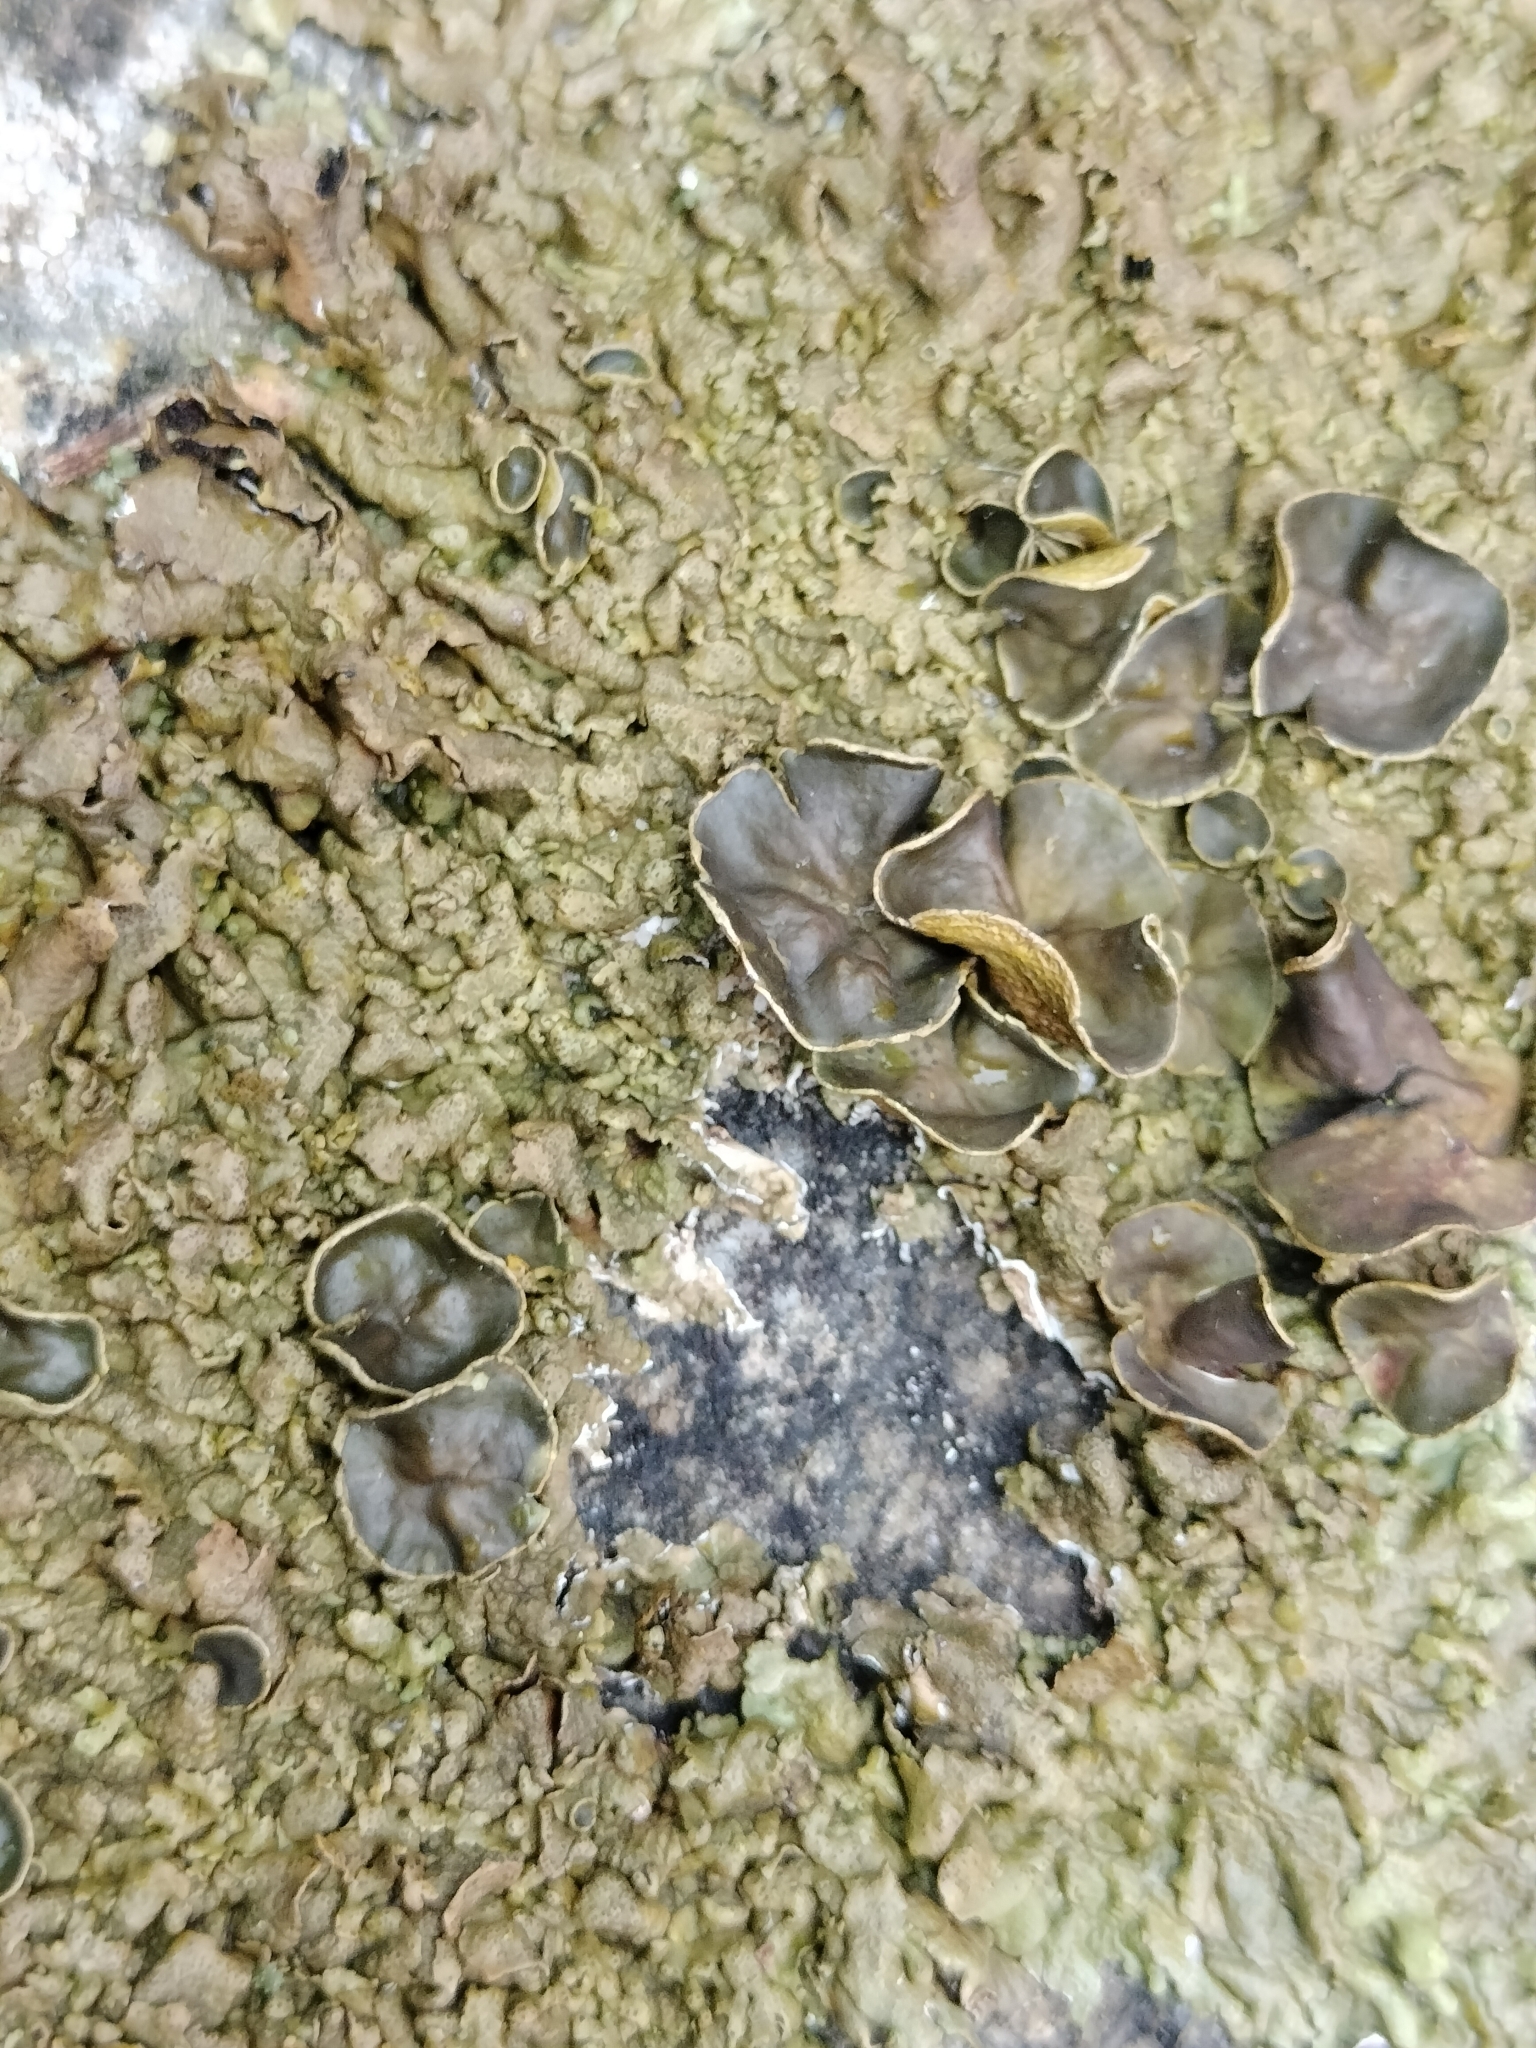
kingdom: Fungi
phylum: Ascomycota
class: Lecanoromycetes
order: Lecanorales
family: Parmeliaceae
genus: Xanthoparmelia
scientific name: Xanthoparmelia pulla
